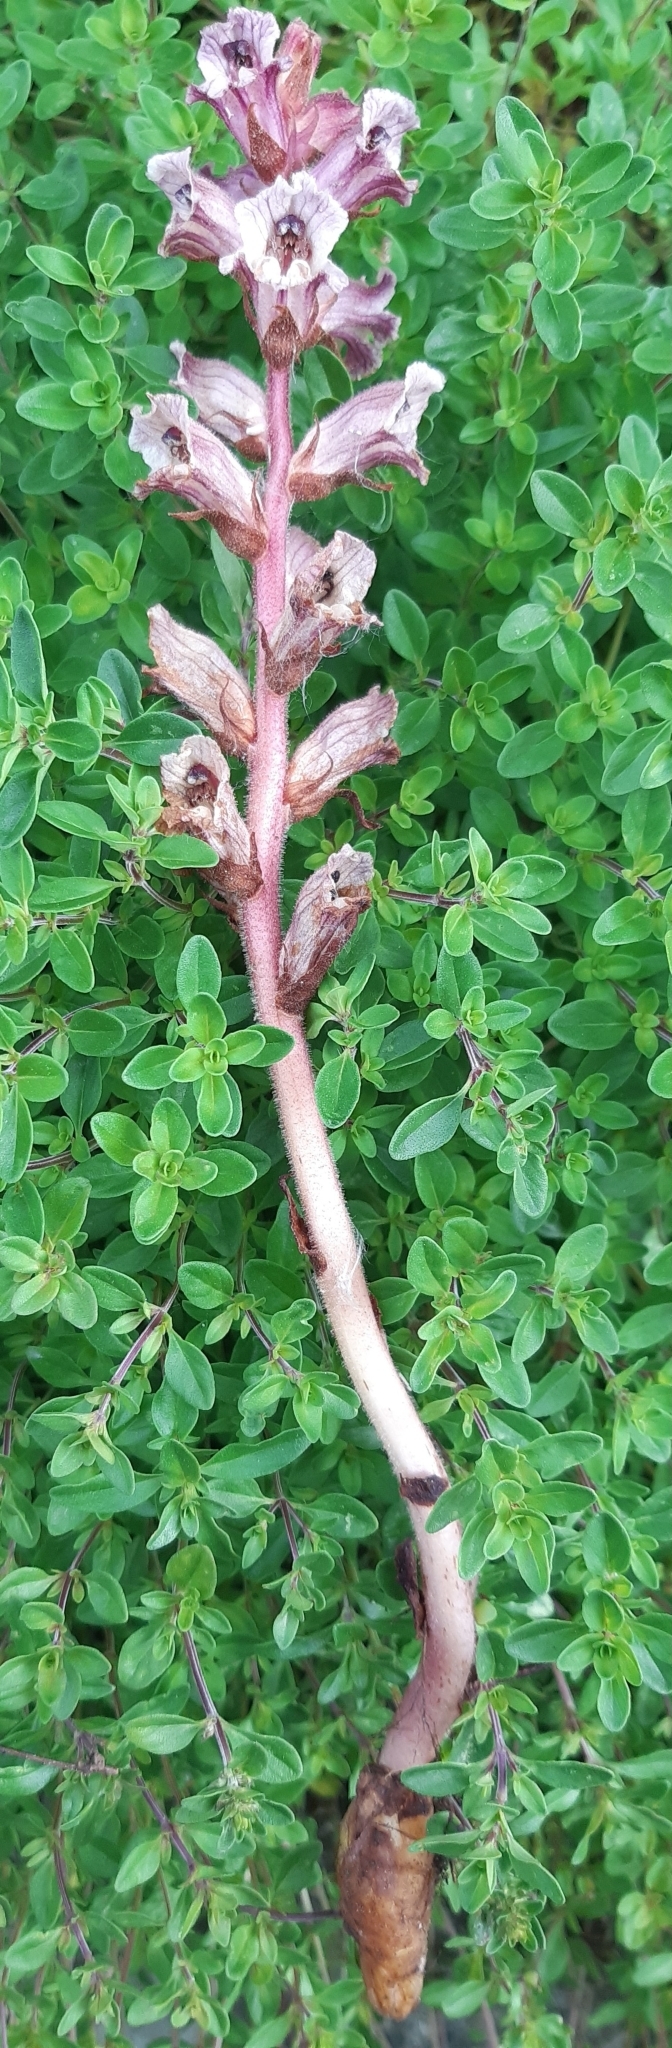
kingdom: Plantae
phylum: Tracheophyta
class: Magnoliopsida
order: Lamiales
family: Orobanchaceae
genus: Orobanche
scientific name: Orobanche alba
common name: Thyme broomrape
